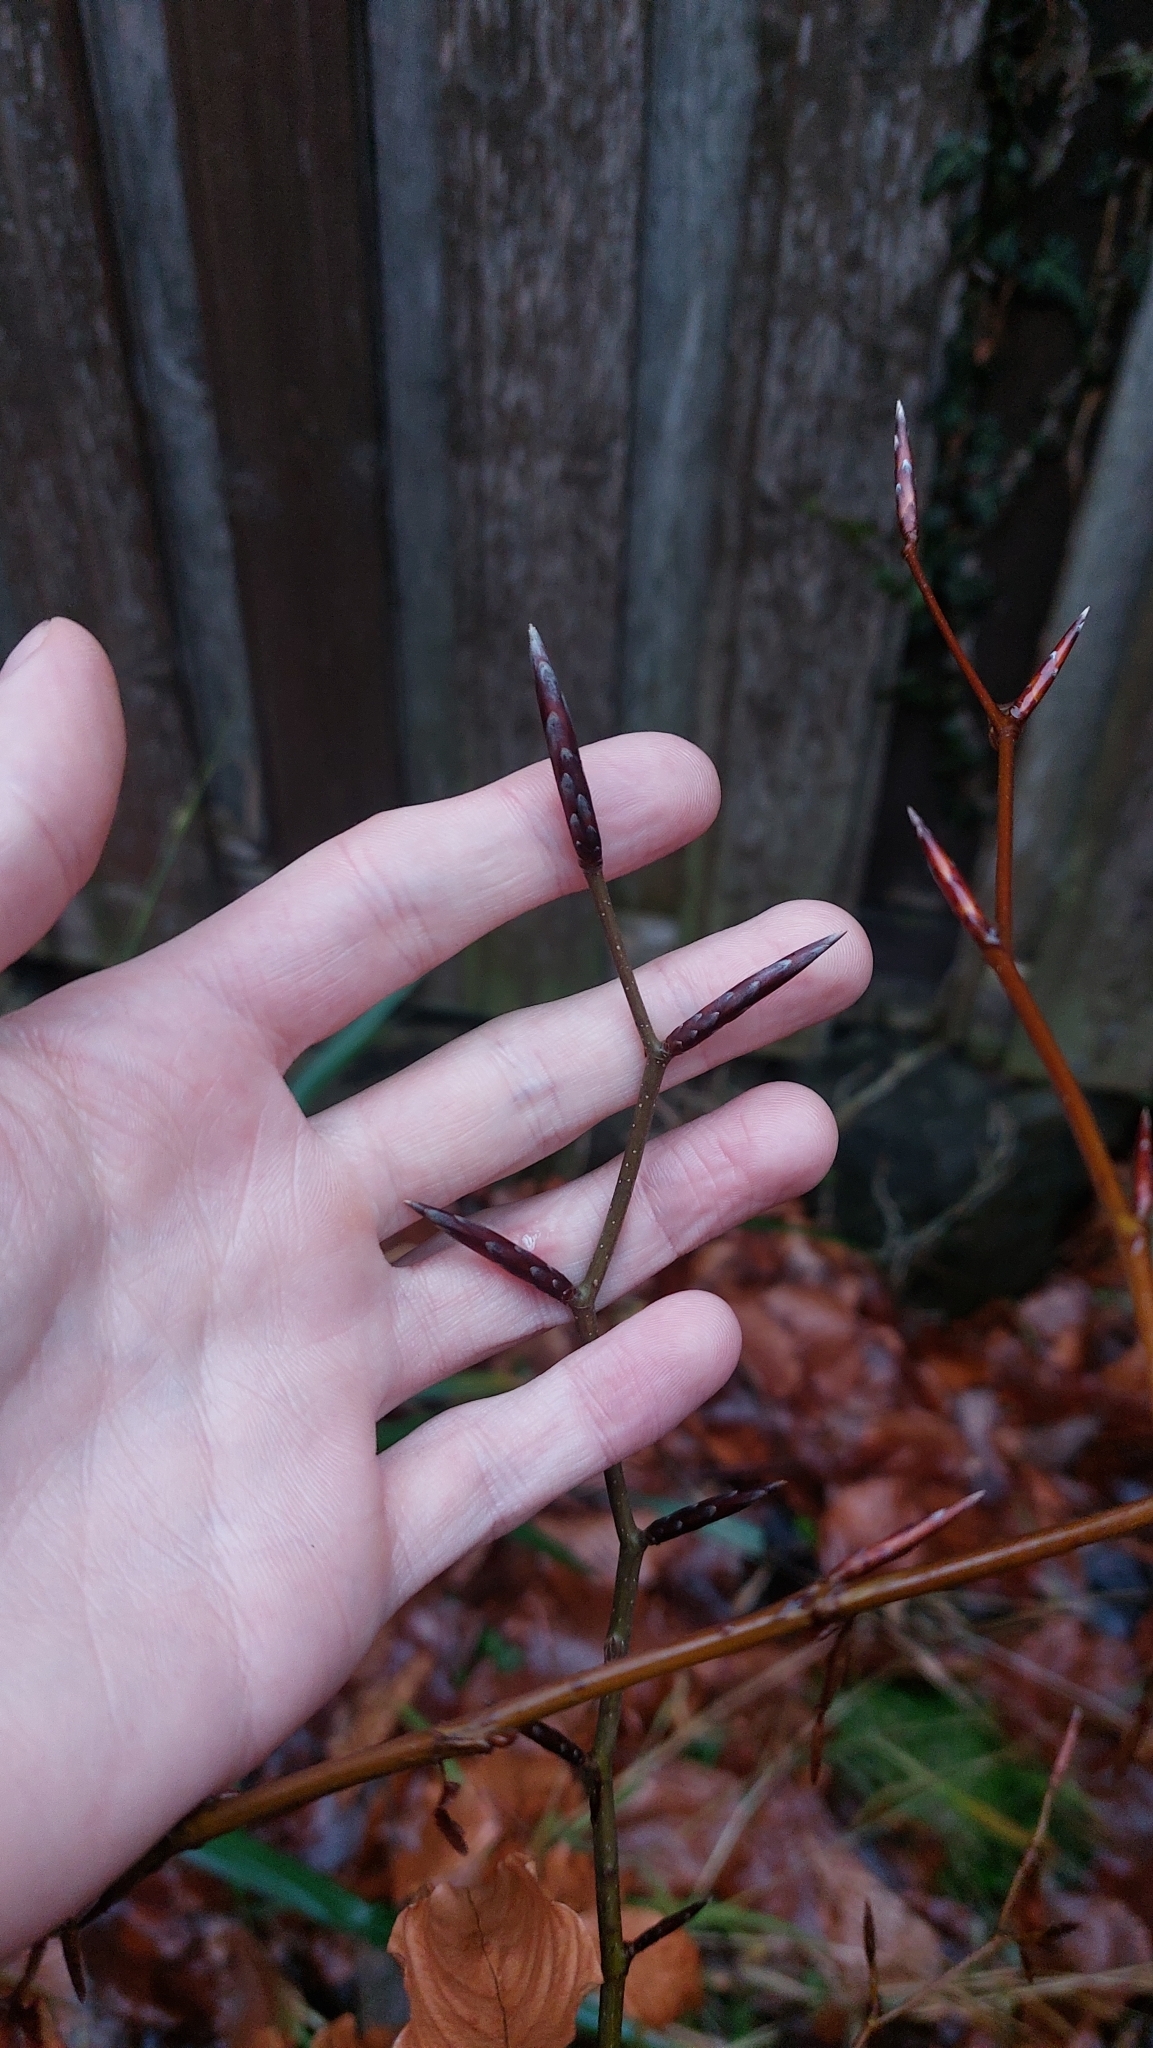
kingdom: Plantae
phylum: Tracheophyta
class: Magnoliopsida
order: Fagales
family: Fagaceae
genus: Fagus
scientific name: Fagus sylvatica
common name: Beech
